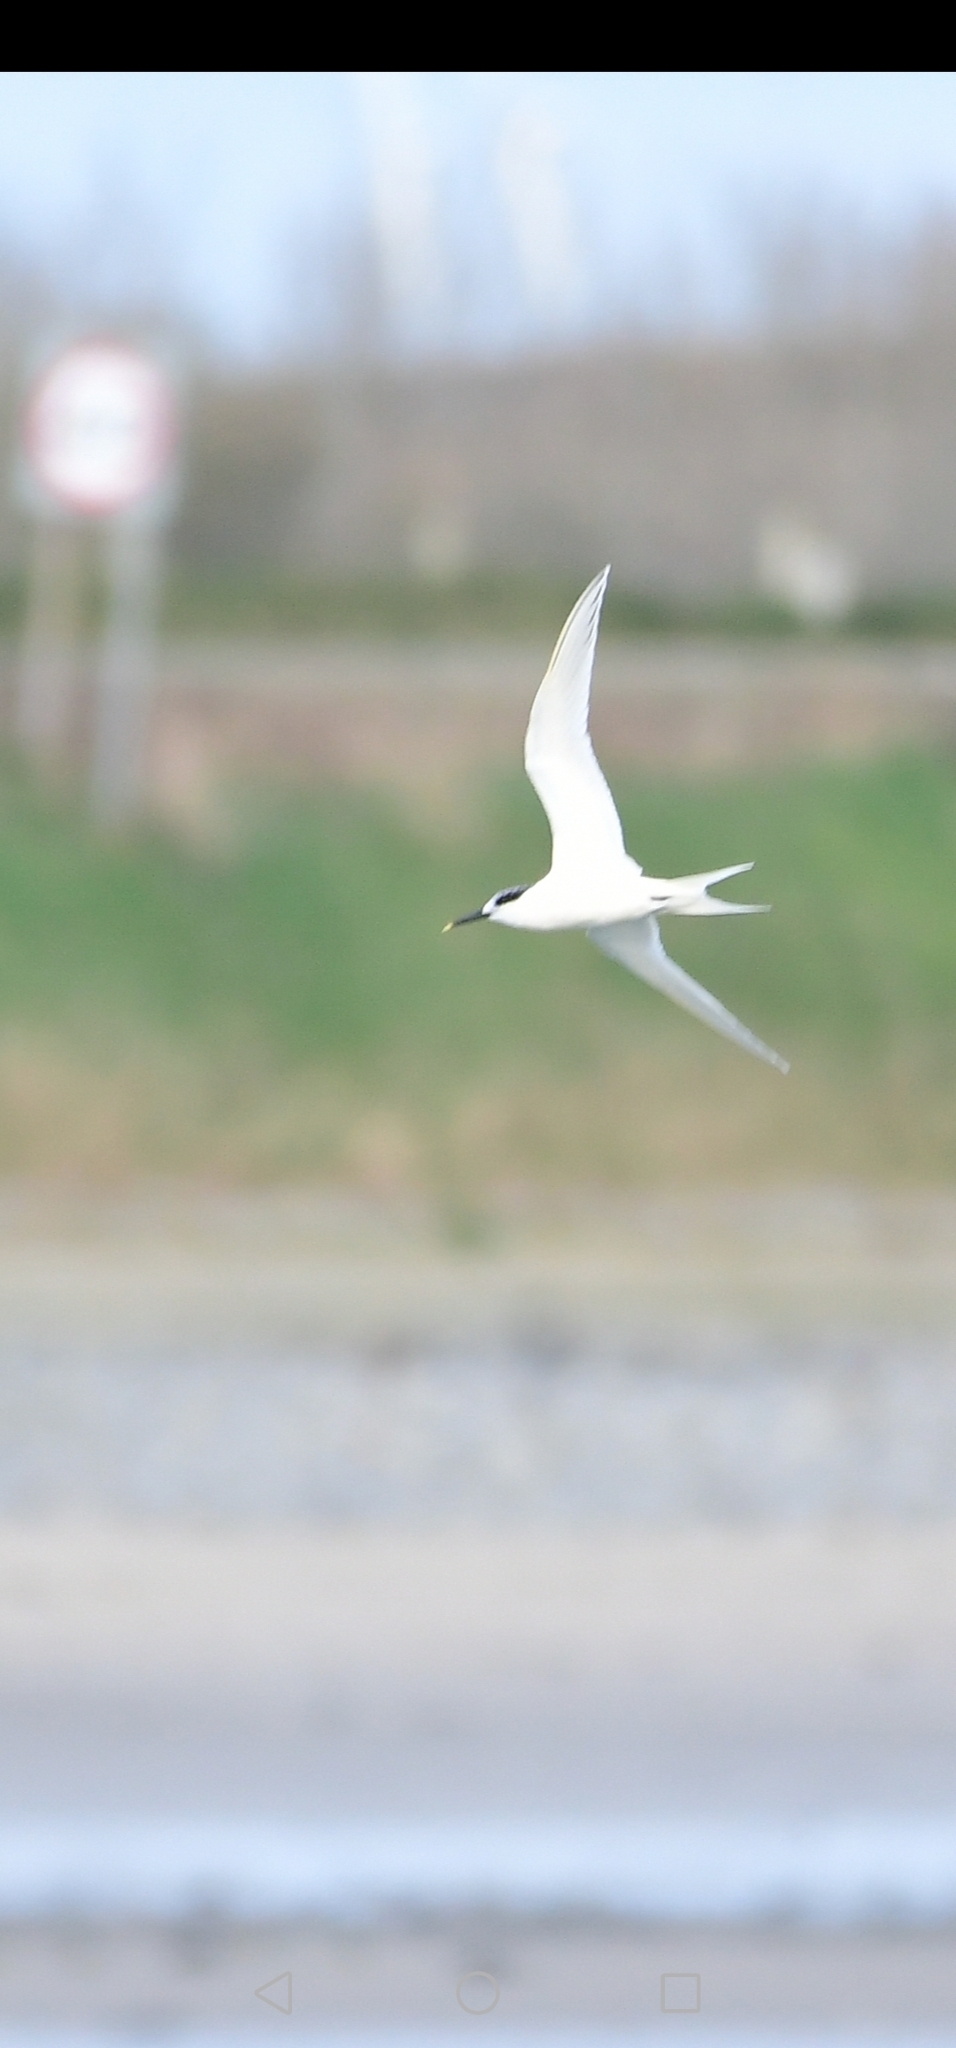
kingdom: Animalia
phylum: Chordata
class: Aves
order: Charadriiformes
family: Laridae
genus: Thalasseus
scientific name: Thalasseus sandvicensis
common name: Sandwich tern
